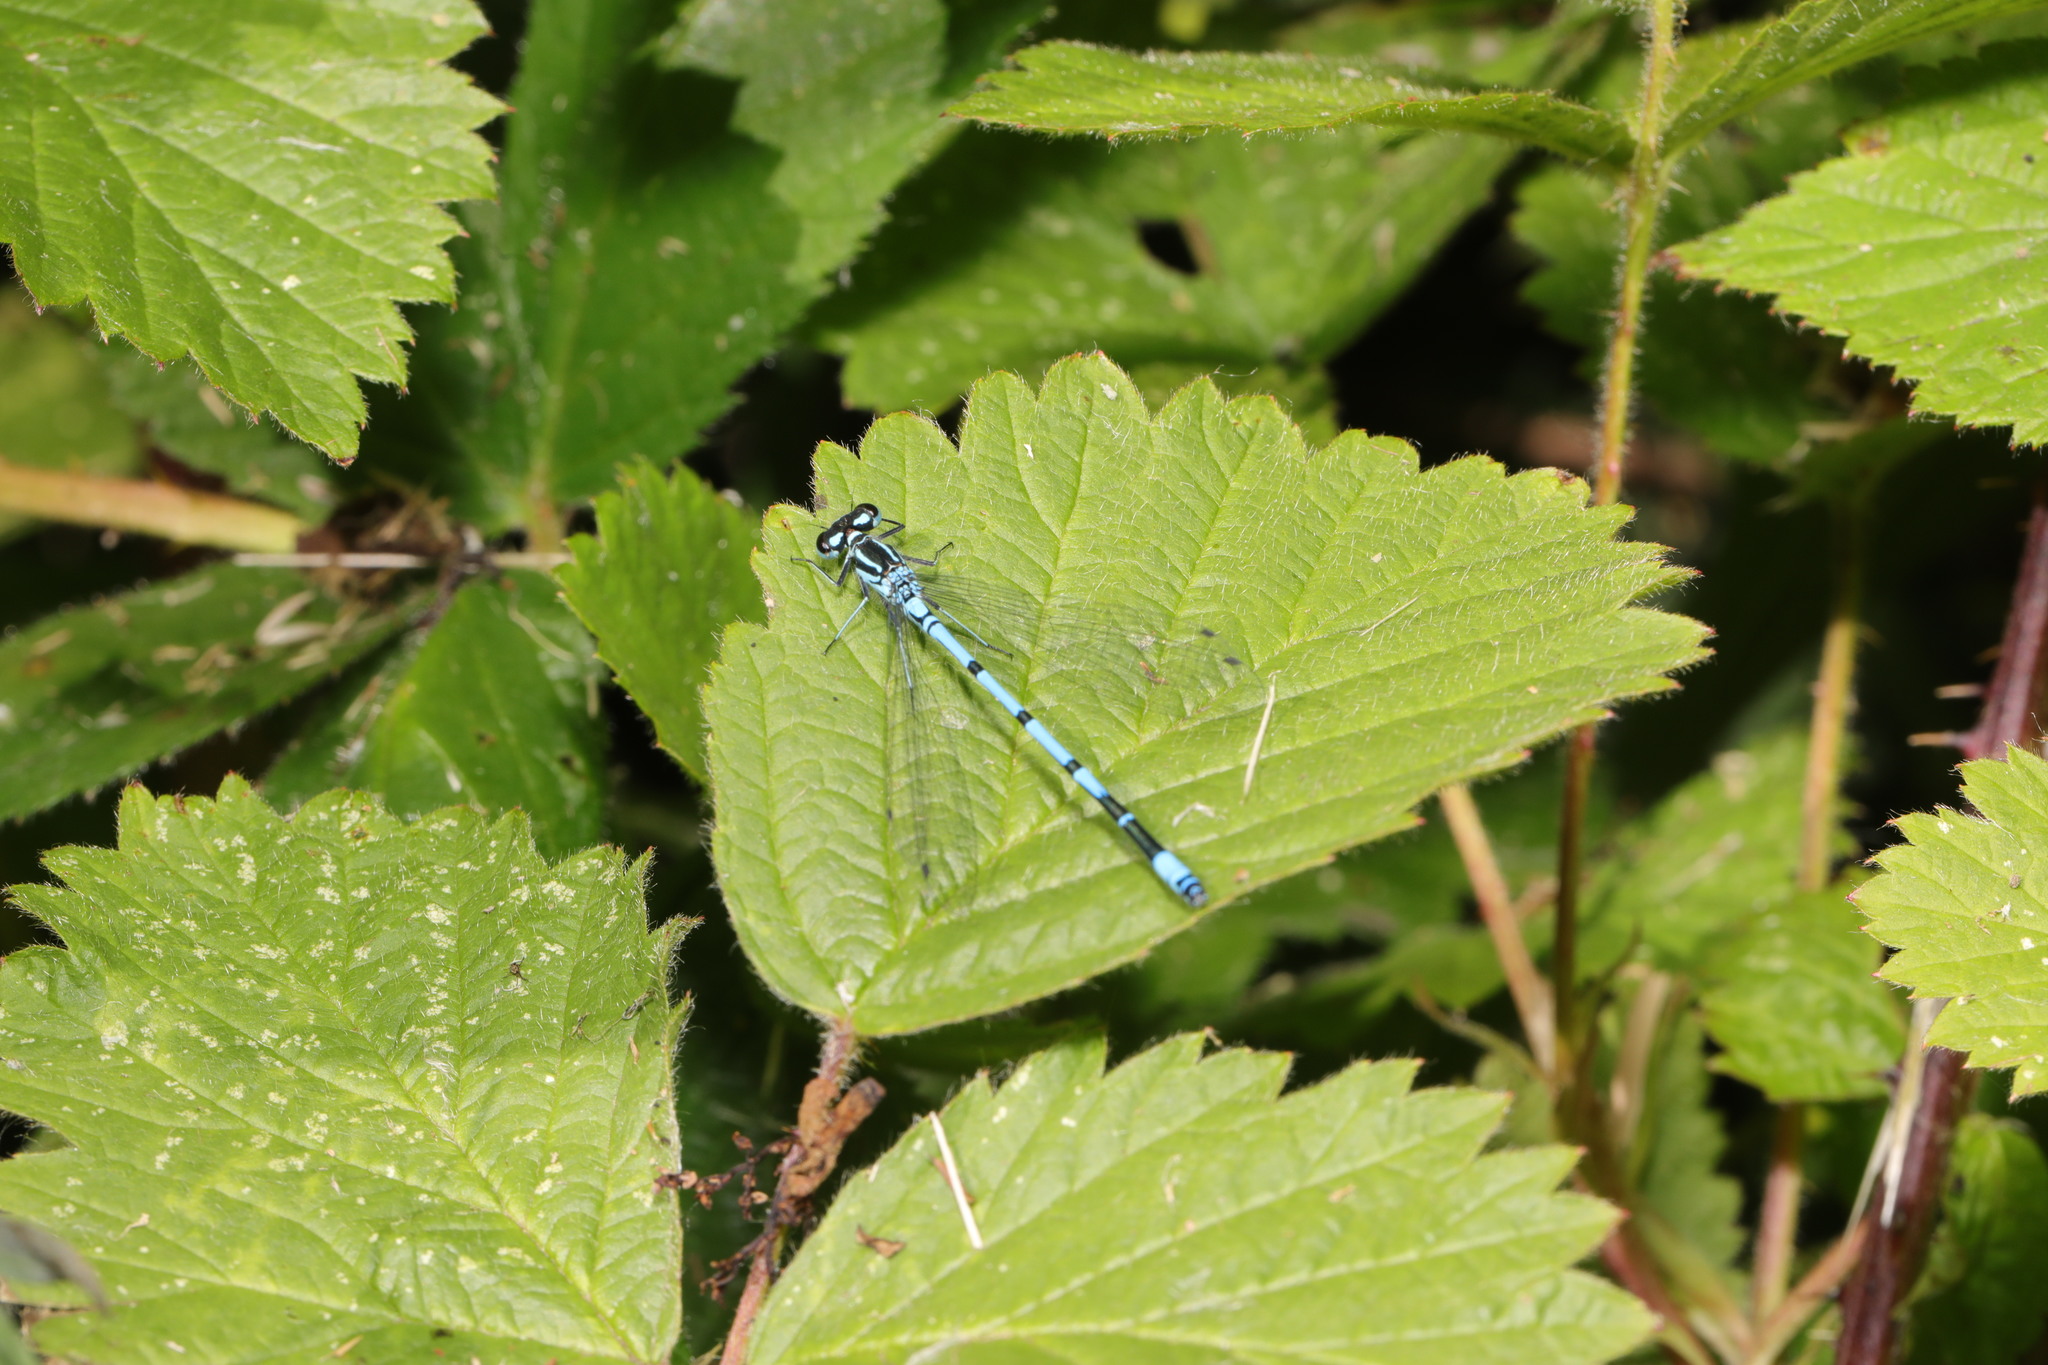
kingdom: Animalia
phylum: Arthropoda
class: Insecta
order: Odonata
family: Coenagrionidae
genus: Coenagrion
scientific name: Coenagrion puella
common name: Azure damselfly
